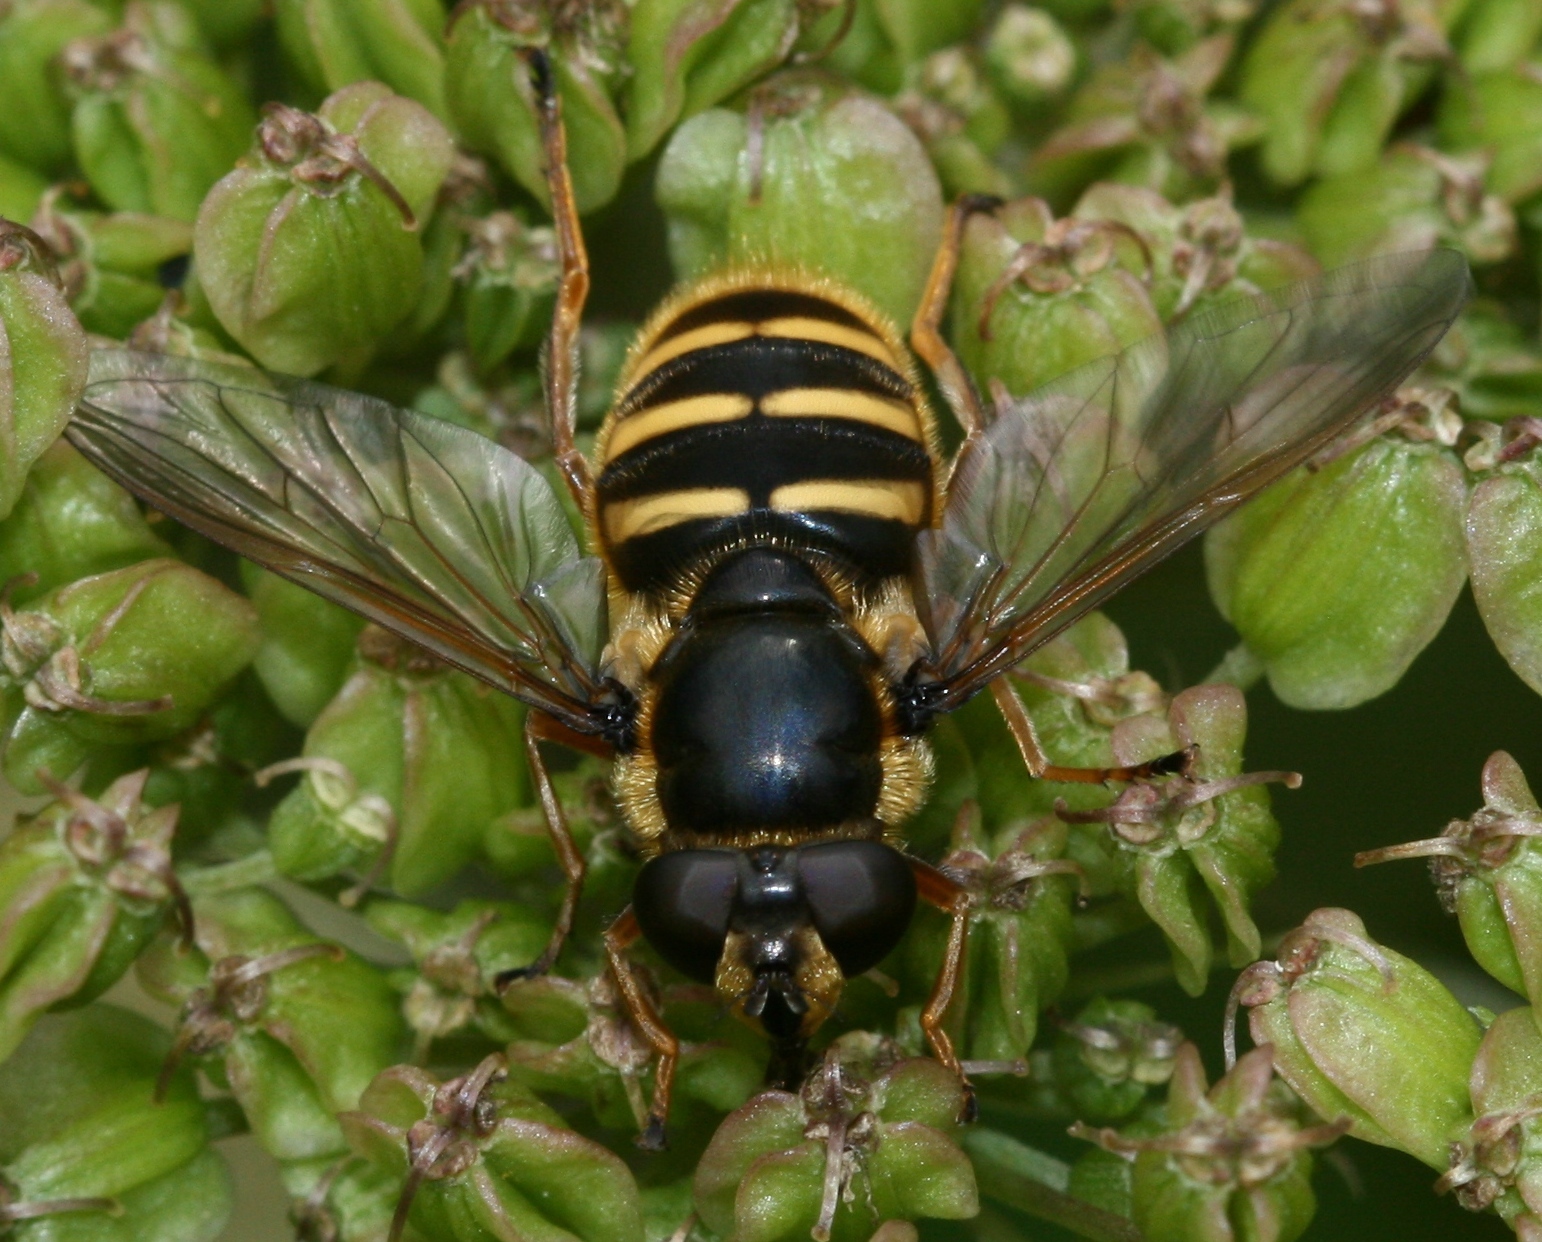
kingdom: Animalia
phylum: Arthropoda
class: Insecta
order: Diptera
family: Syrphidae
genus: Sericomyia
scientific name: Sericomyia silentis
